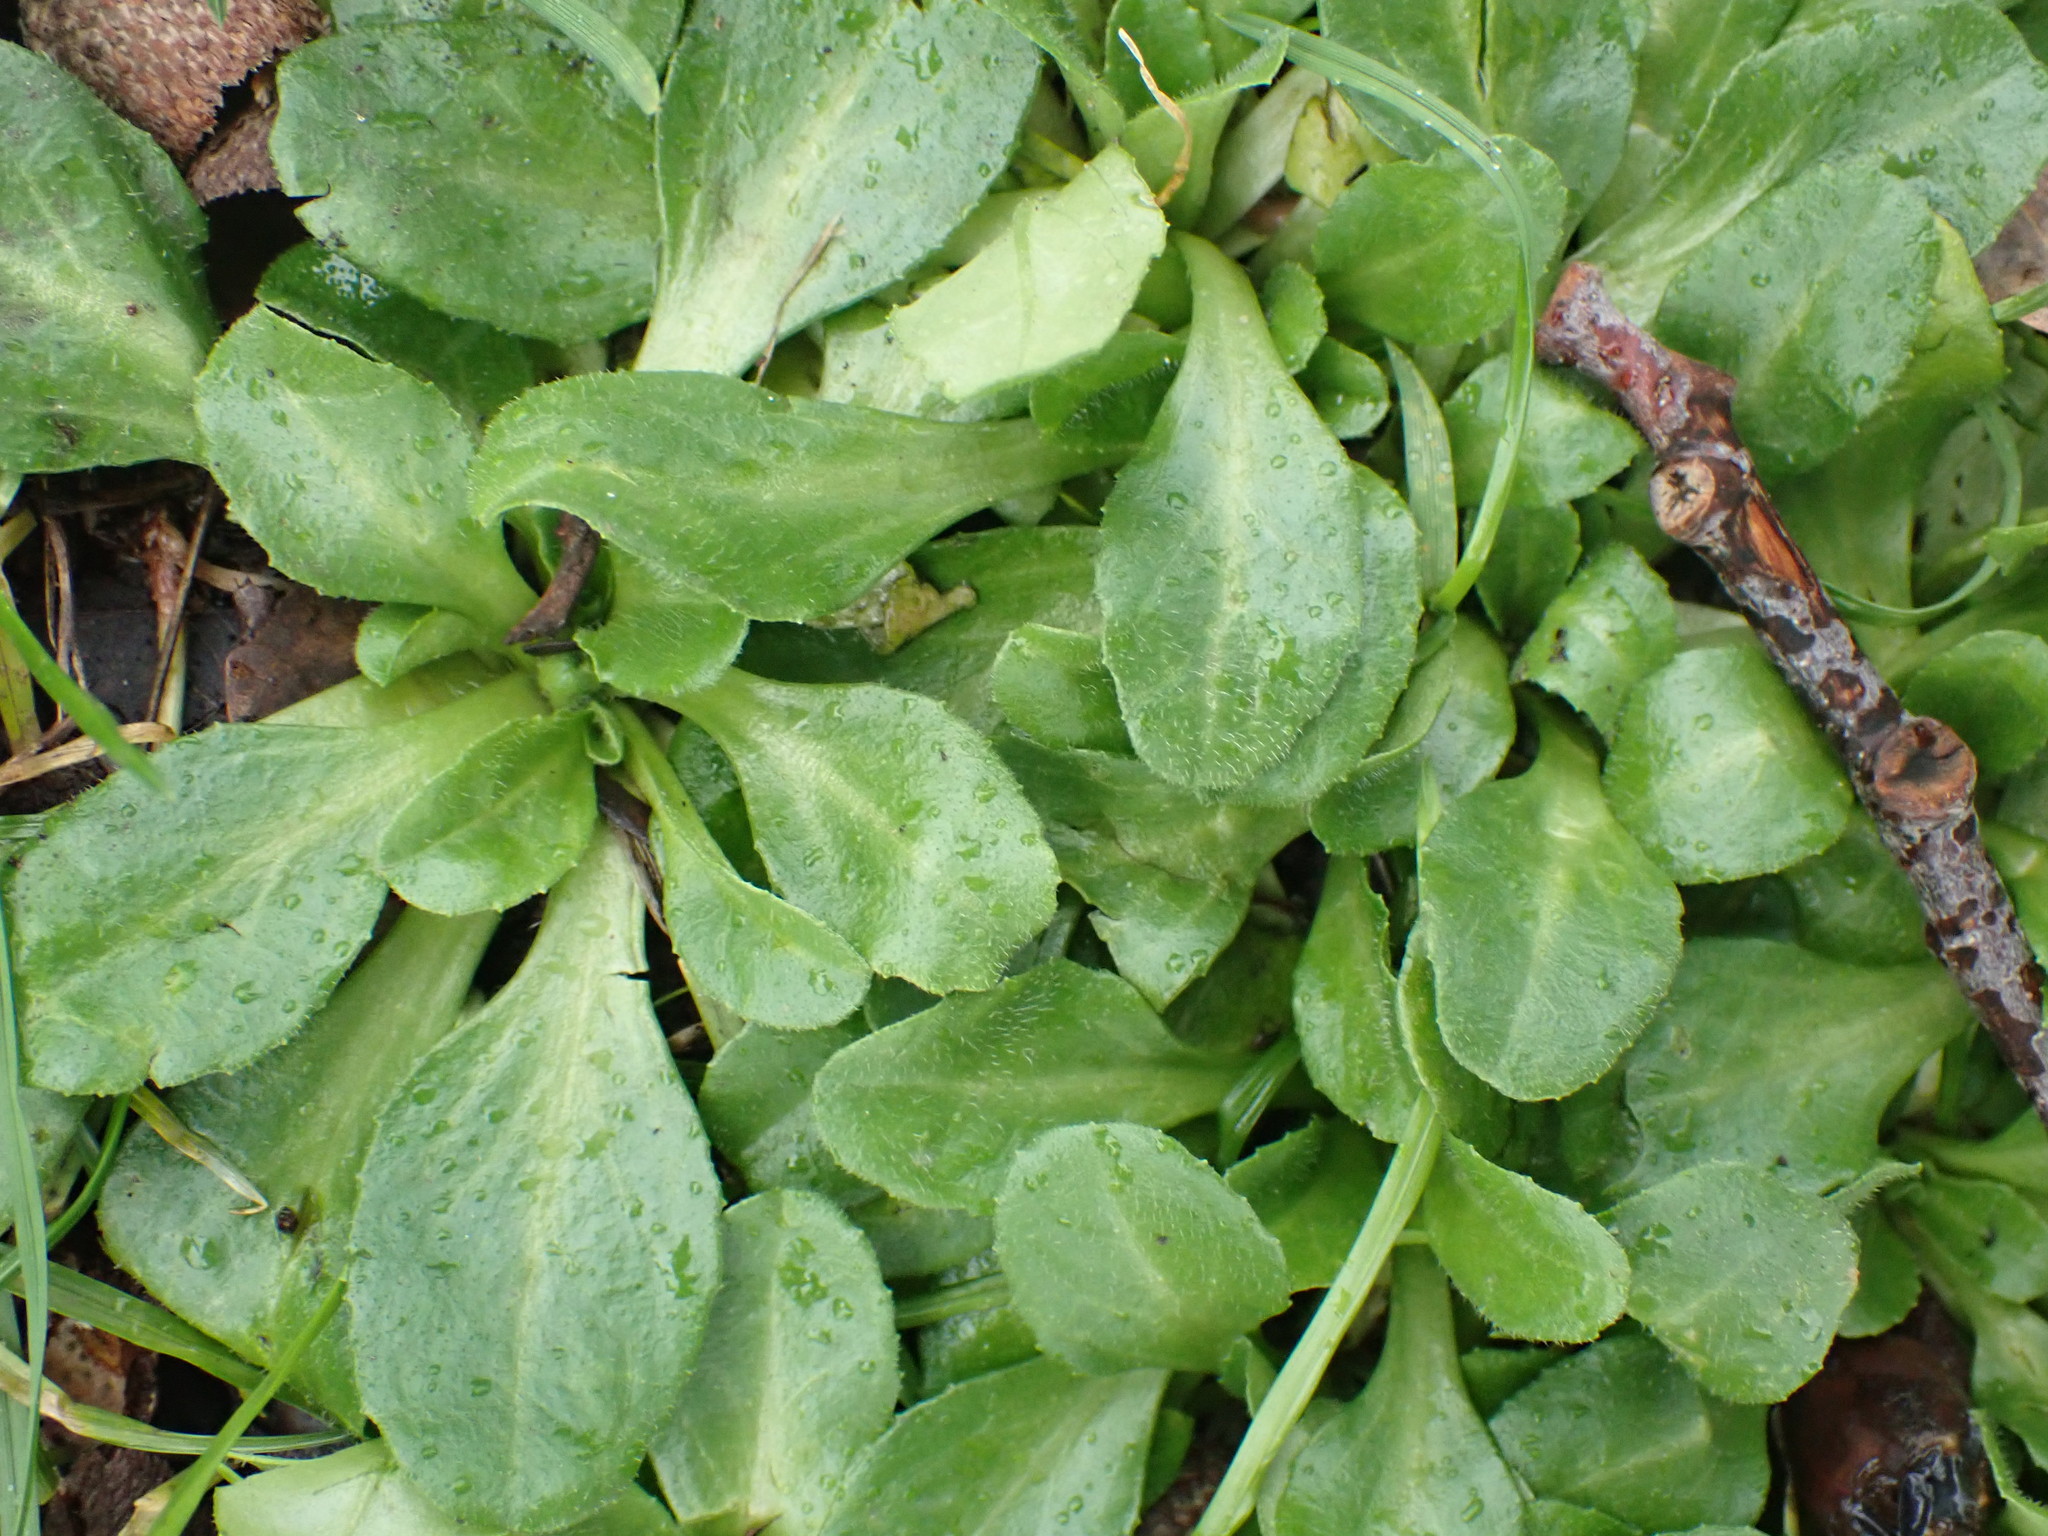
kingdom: Plantae
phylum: Tracheophyta
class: Magnoliopsida
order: Asterales
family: Asteraceae
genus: Bellis
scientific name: Bellis perennis
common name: Lawndaisy
